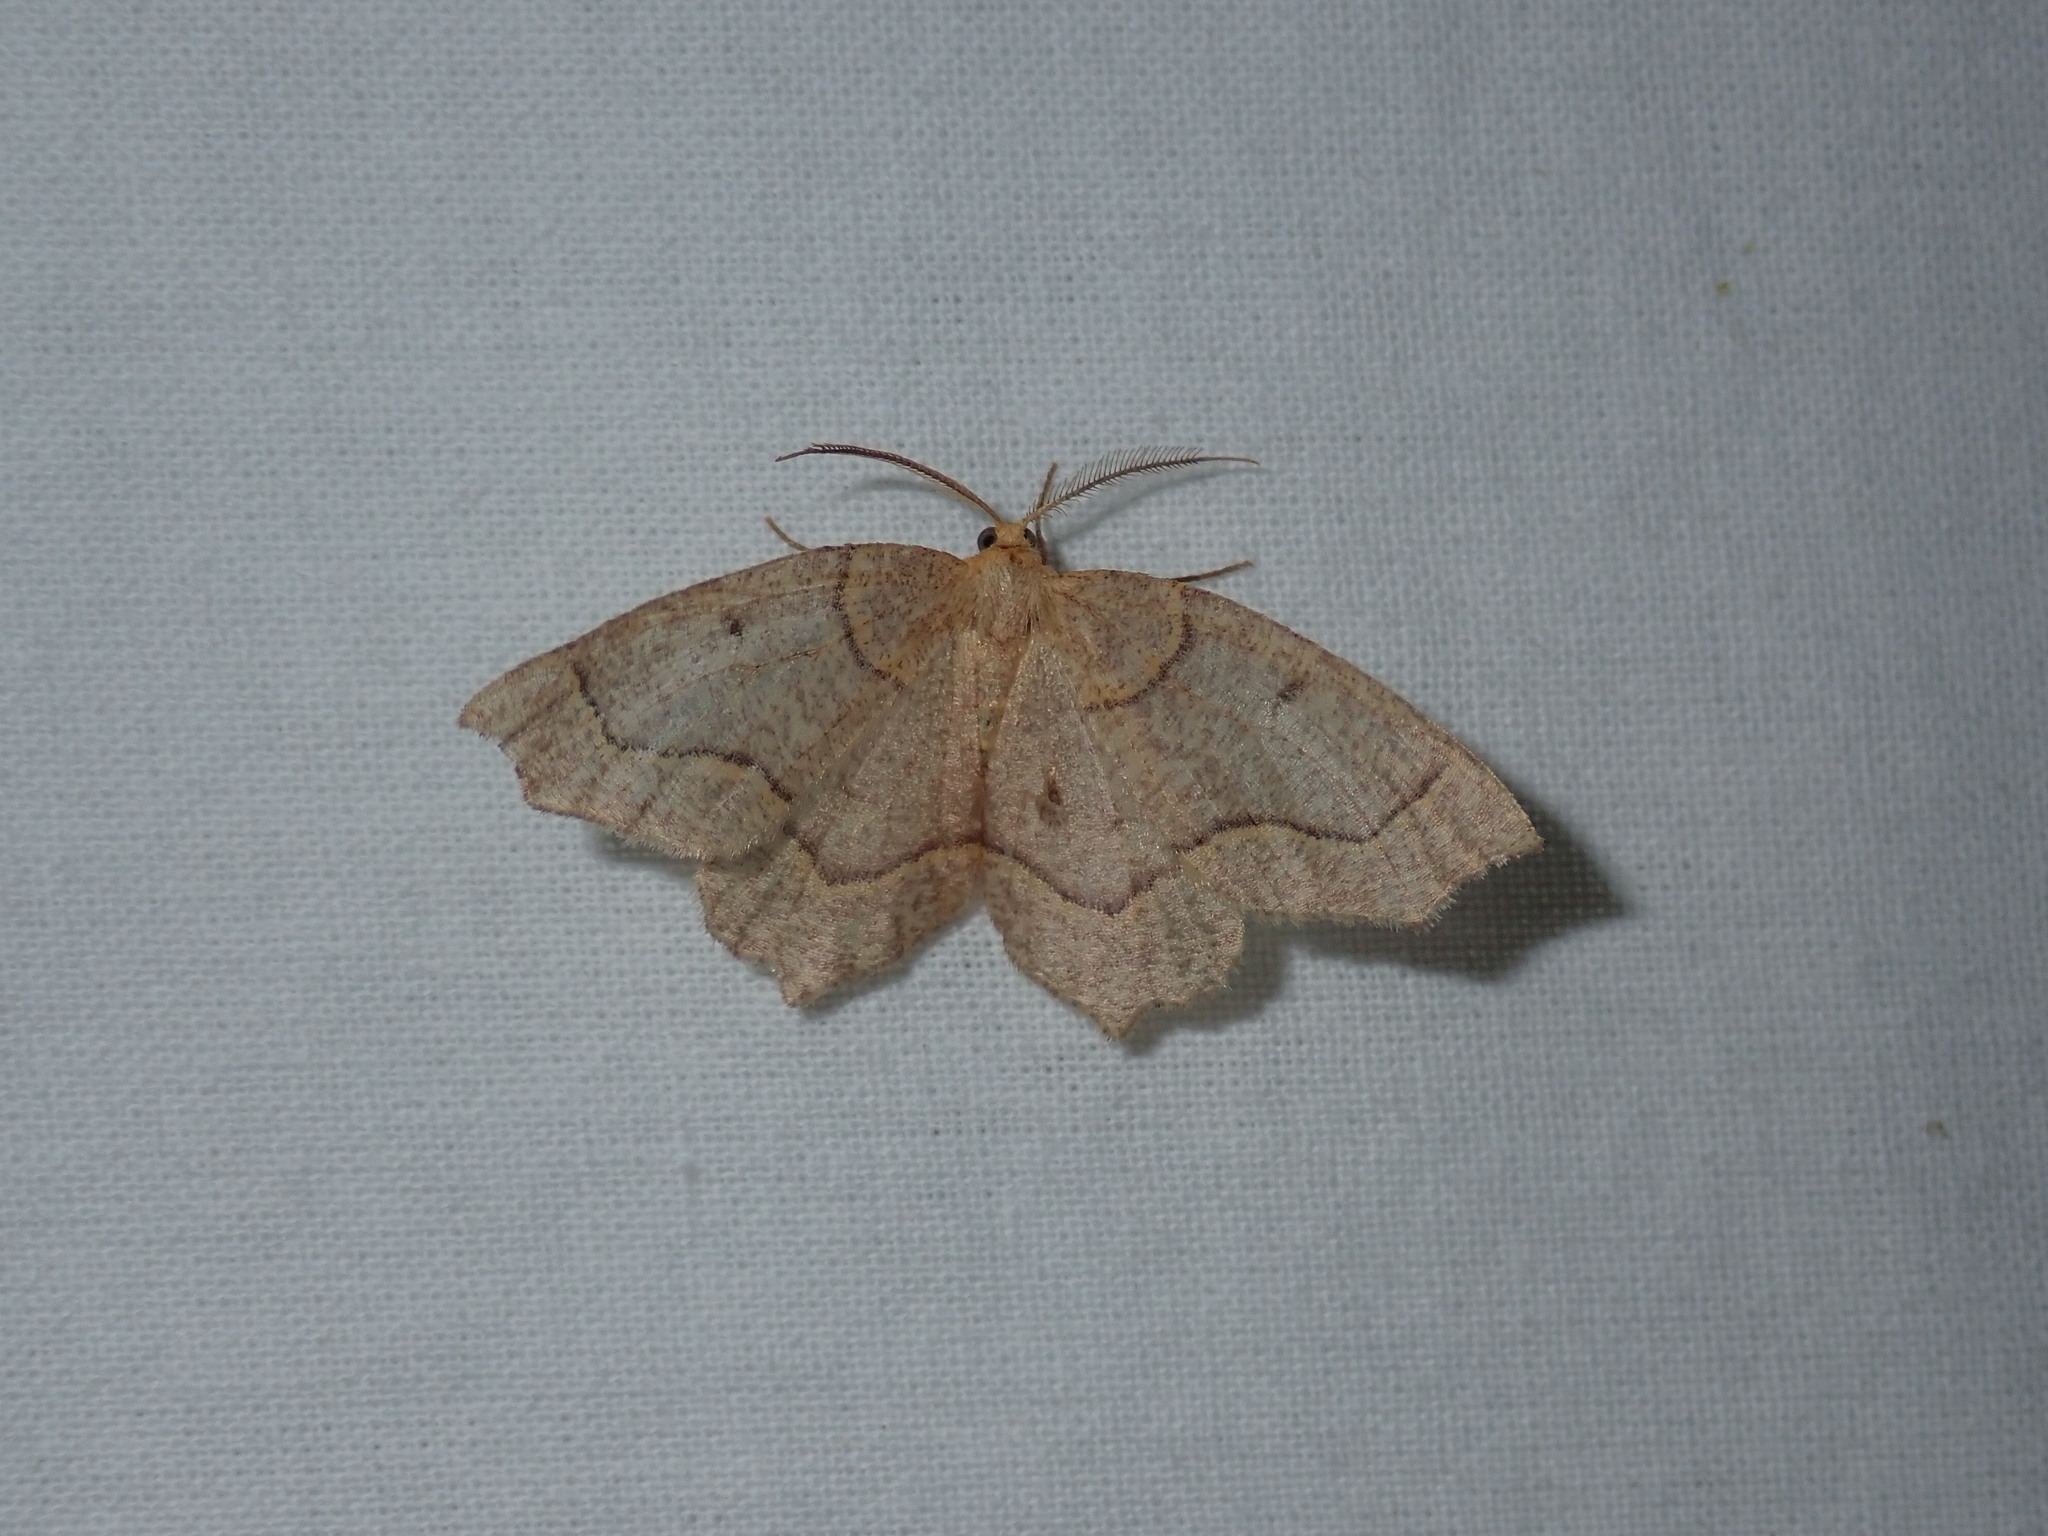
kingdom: Animalia
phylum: Arthropoda
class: Insecta
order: Lepidoptera
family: Geometridae
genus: Lambdina
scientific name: Lambdina fiscellaria
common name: Hemlock looper
